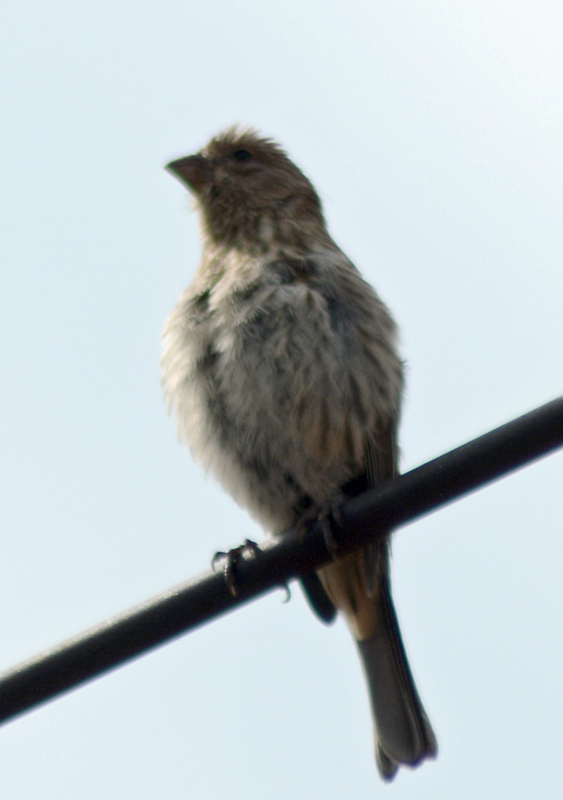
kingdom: Animalia
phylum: Chordata
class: Aves
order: Passeriformes
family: Fringillidae
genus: Haemorhous
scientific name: Haemorhous mexicanus
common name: House finch
